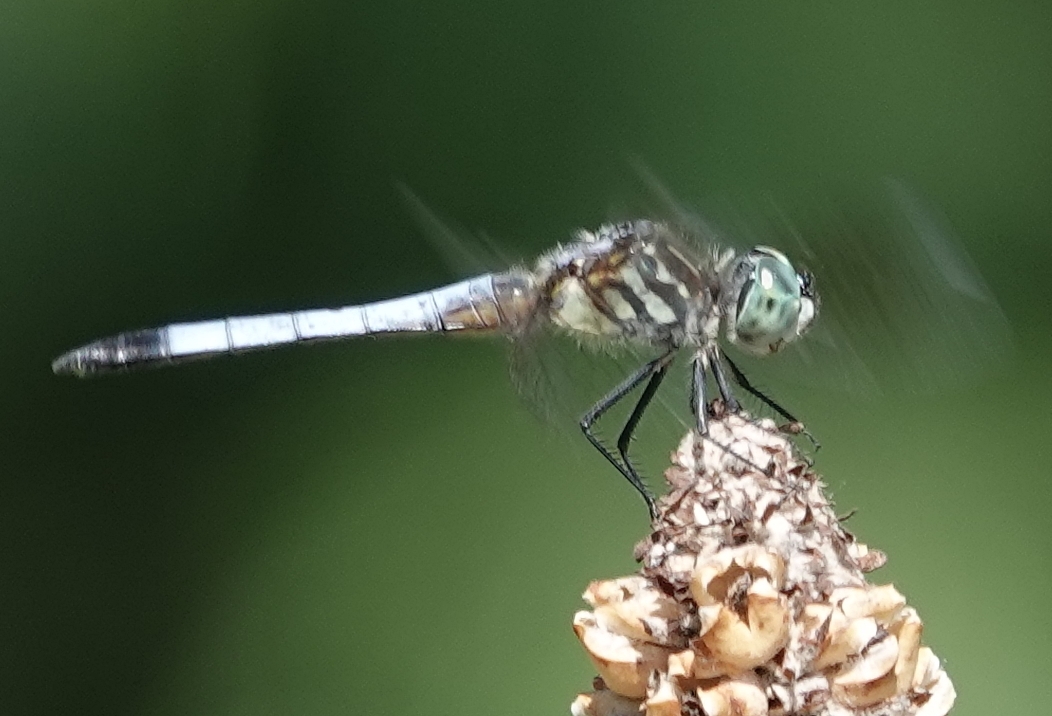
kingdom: Animalia
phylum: Arthropoda
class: Insecta
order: Odonata
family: Libellulidae
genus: Pachydiplax
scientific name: Pachydiplax longipennis
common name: Blue dasher
